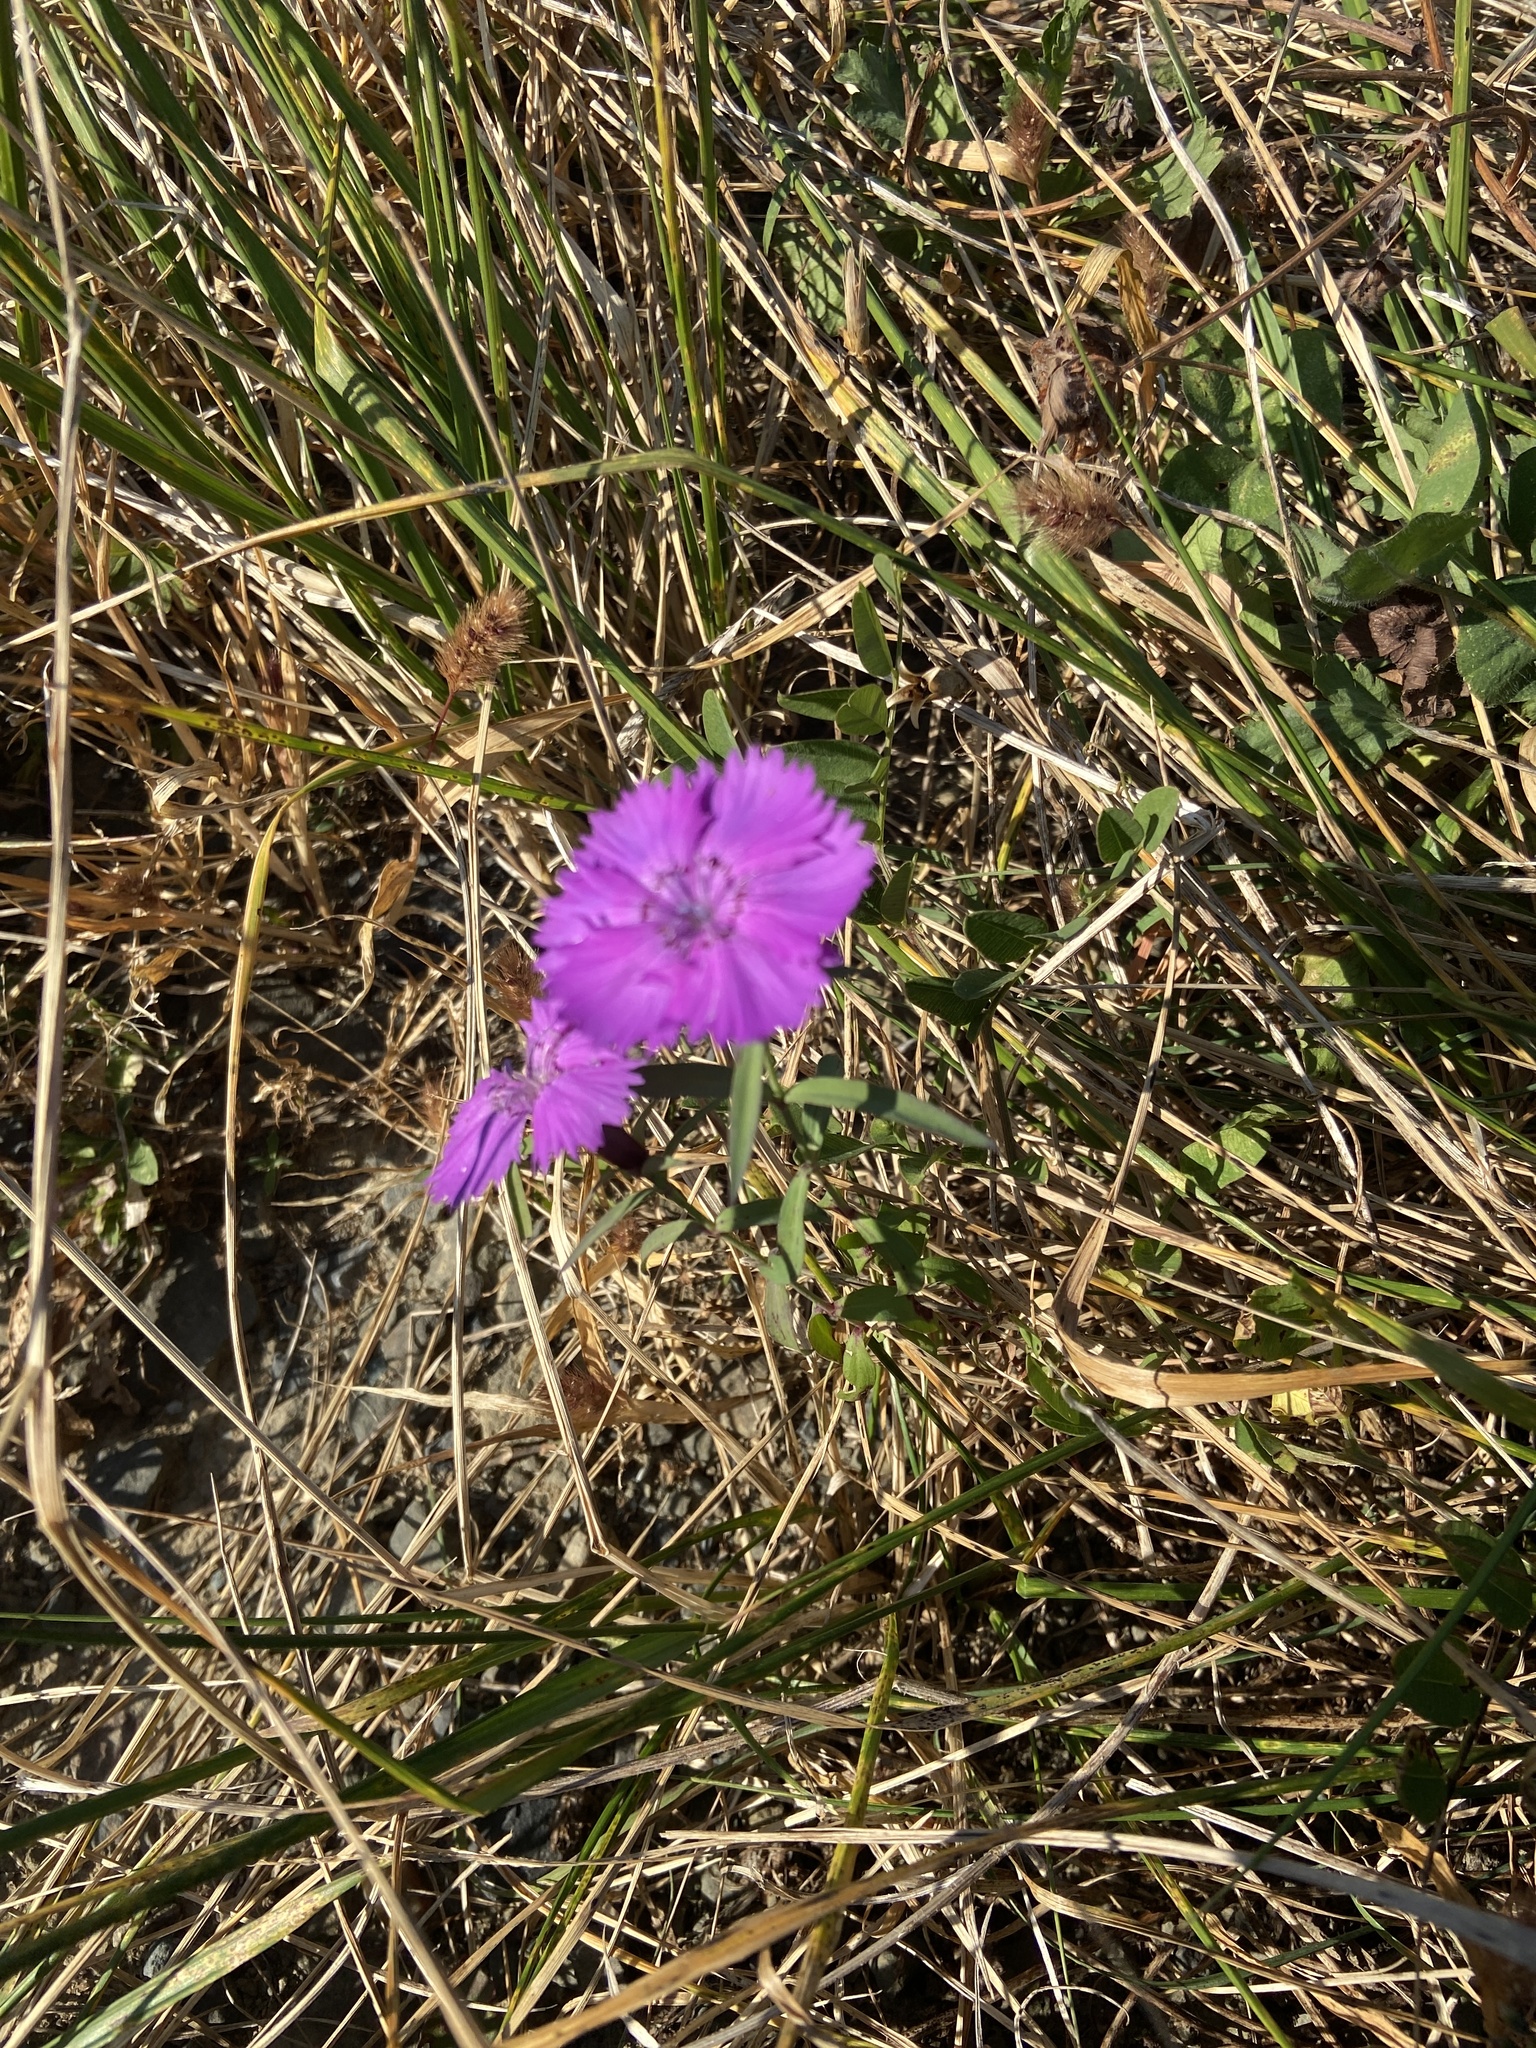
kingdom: Plantae
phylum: Tracheophyta
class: Magnoliopsida
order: Caryophyllales
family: Caryophyllaceae
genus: Dianthus
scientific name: Dianthus chinensis
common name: Rainbow pink
